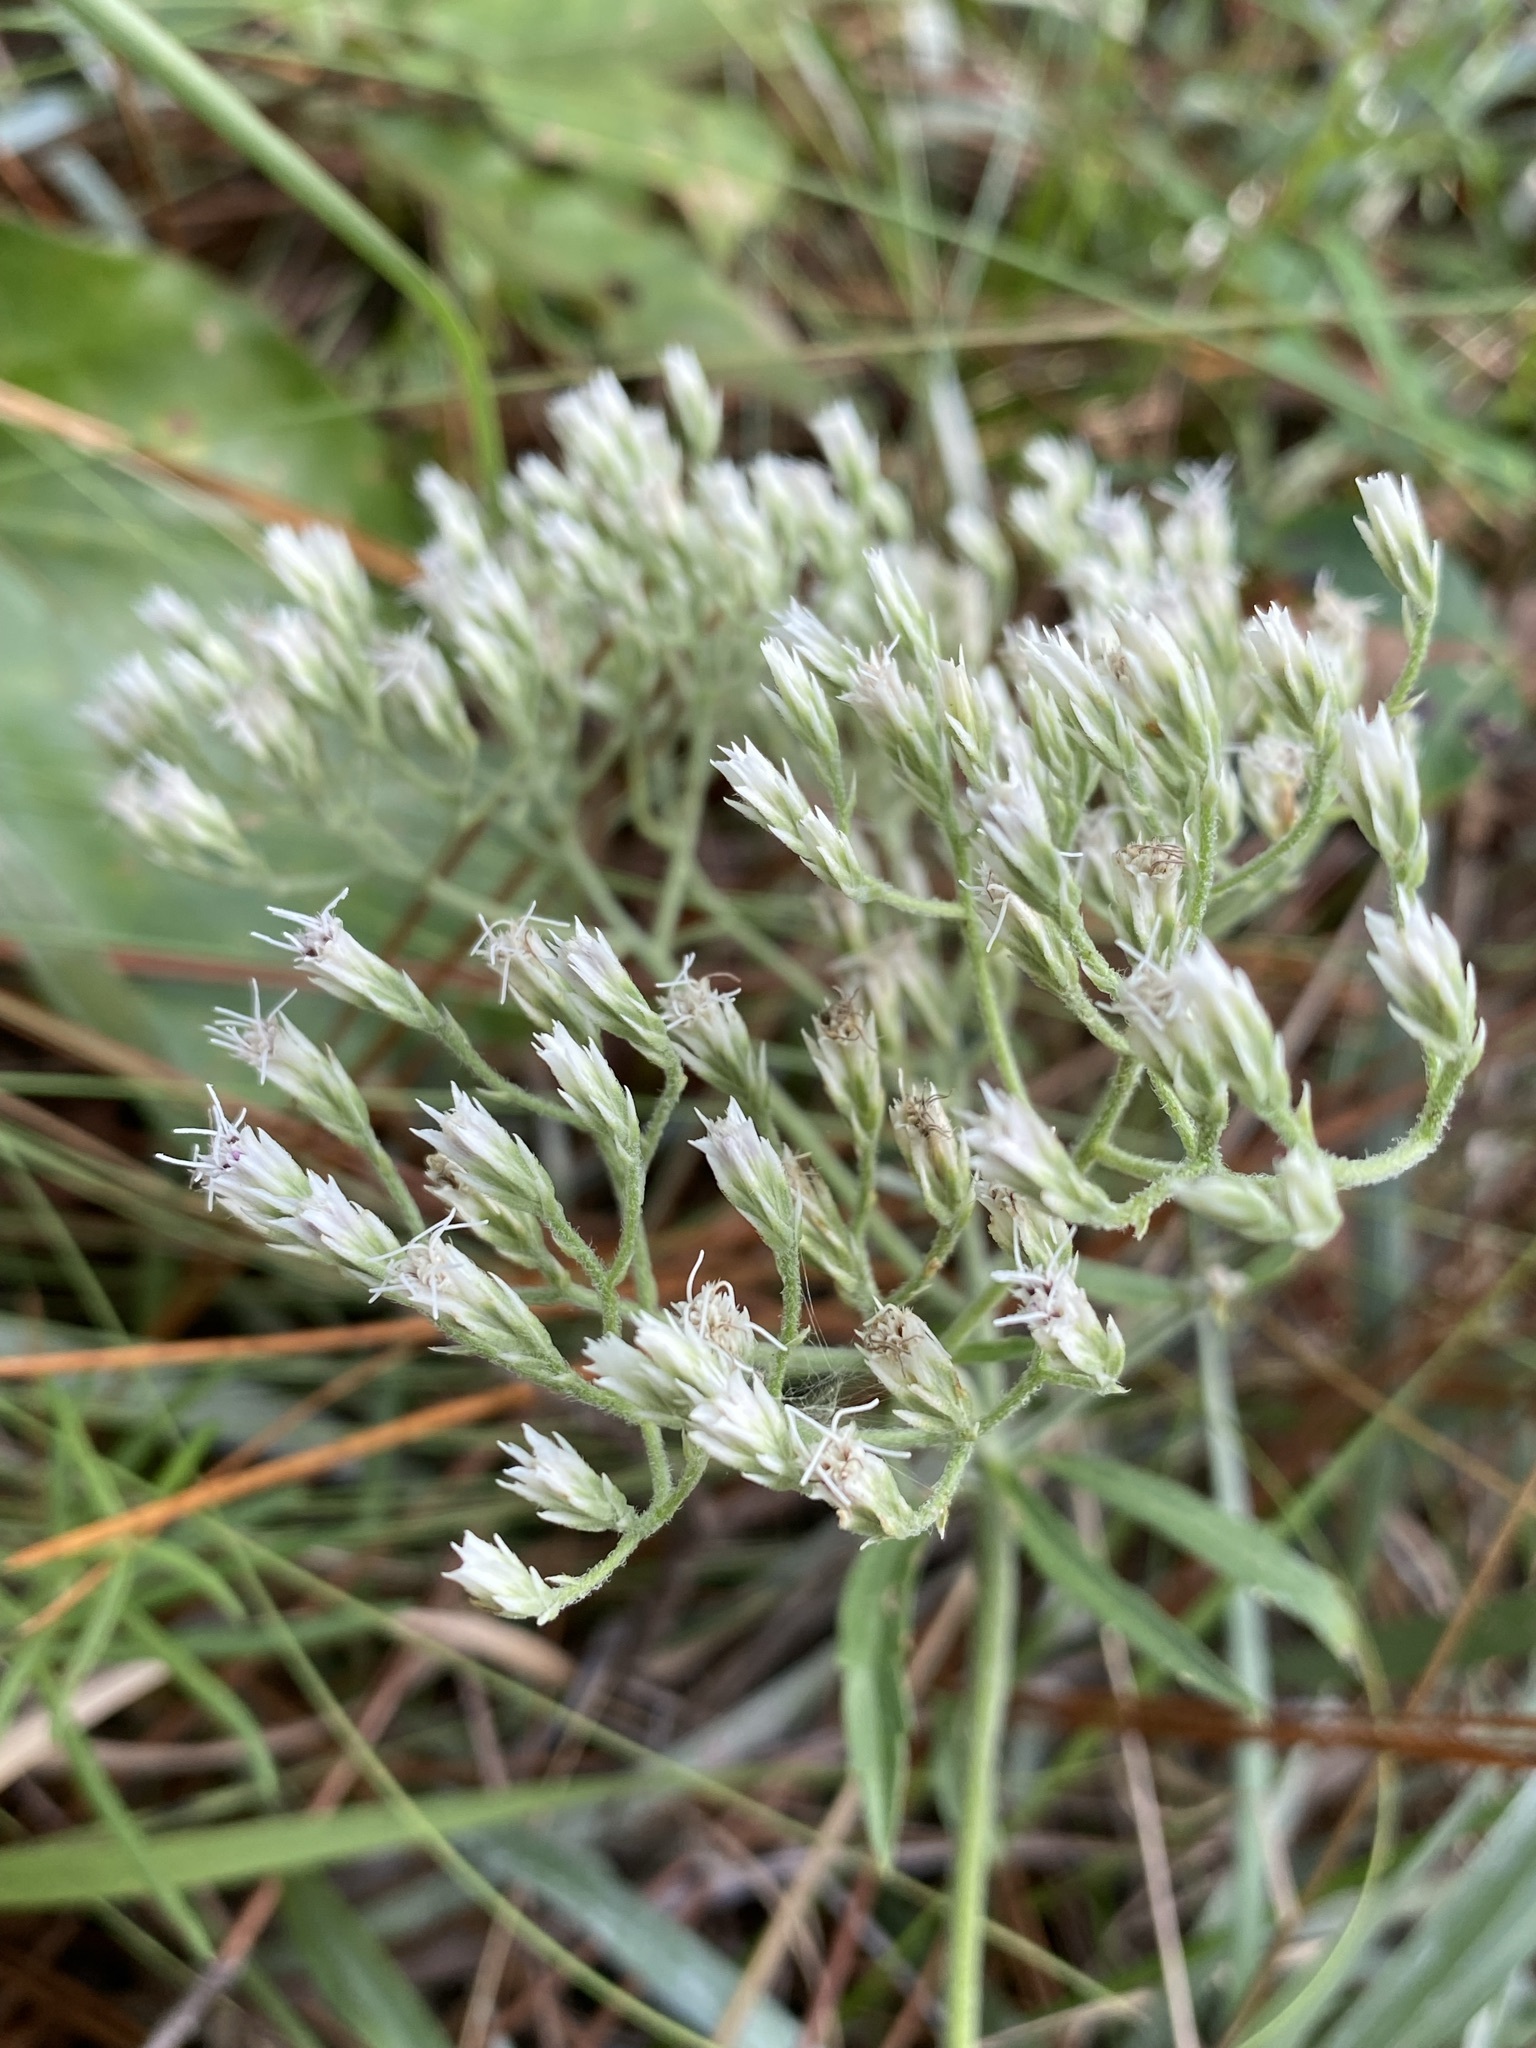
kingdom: Plantae
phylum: Tracheophyta
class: Magnoliopsida
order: Asterales
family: Asteraceae
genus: Eupatorium
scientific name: Eupatorium album
